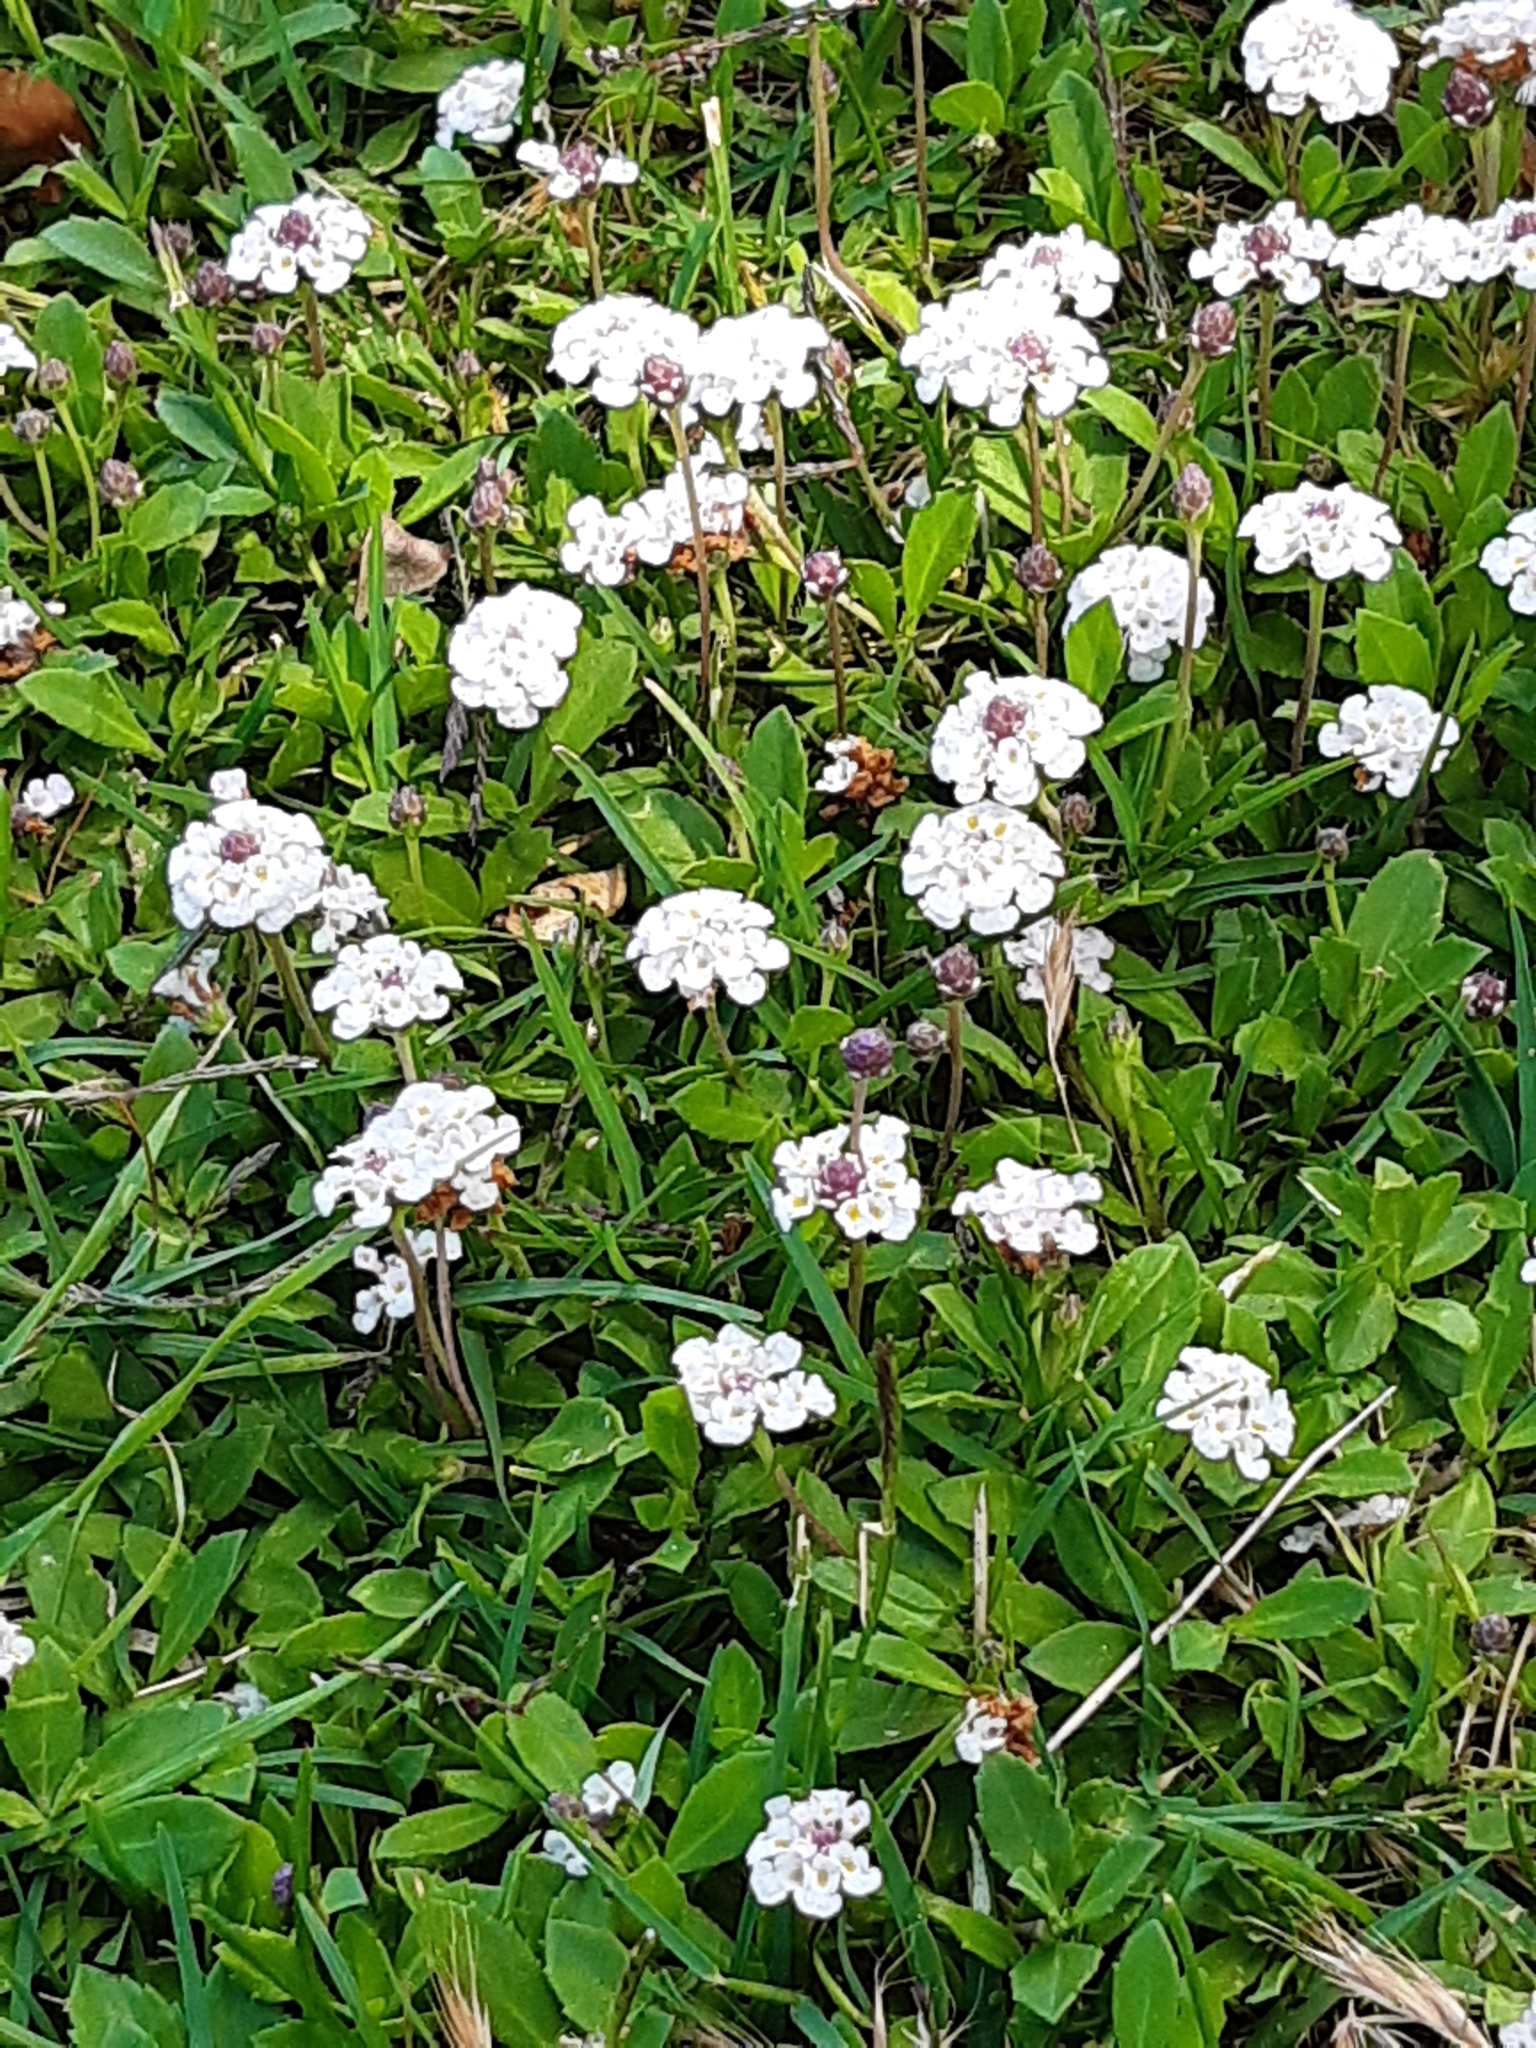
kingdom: Plantae
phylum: Tracheophyta
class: Magnoliopsida
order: Lamiales
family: Verbenaceae
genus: Phyla
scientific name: Phyla nodiflora
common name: Frogfruit
